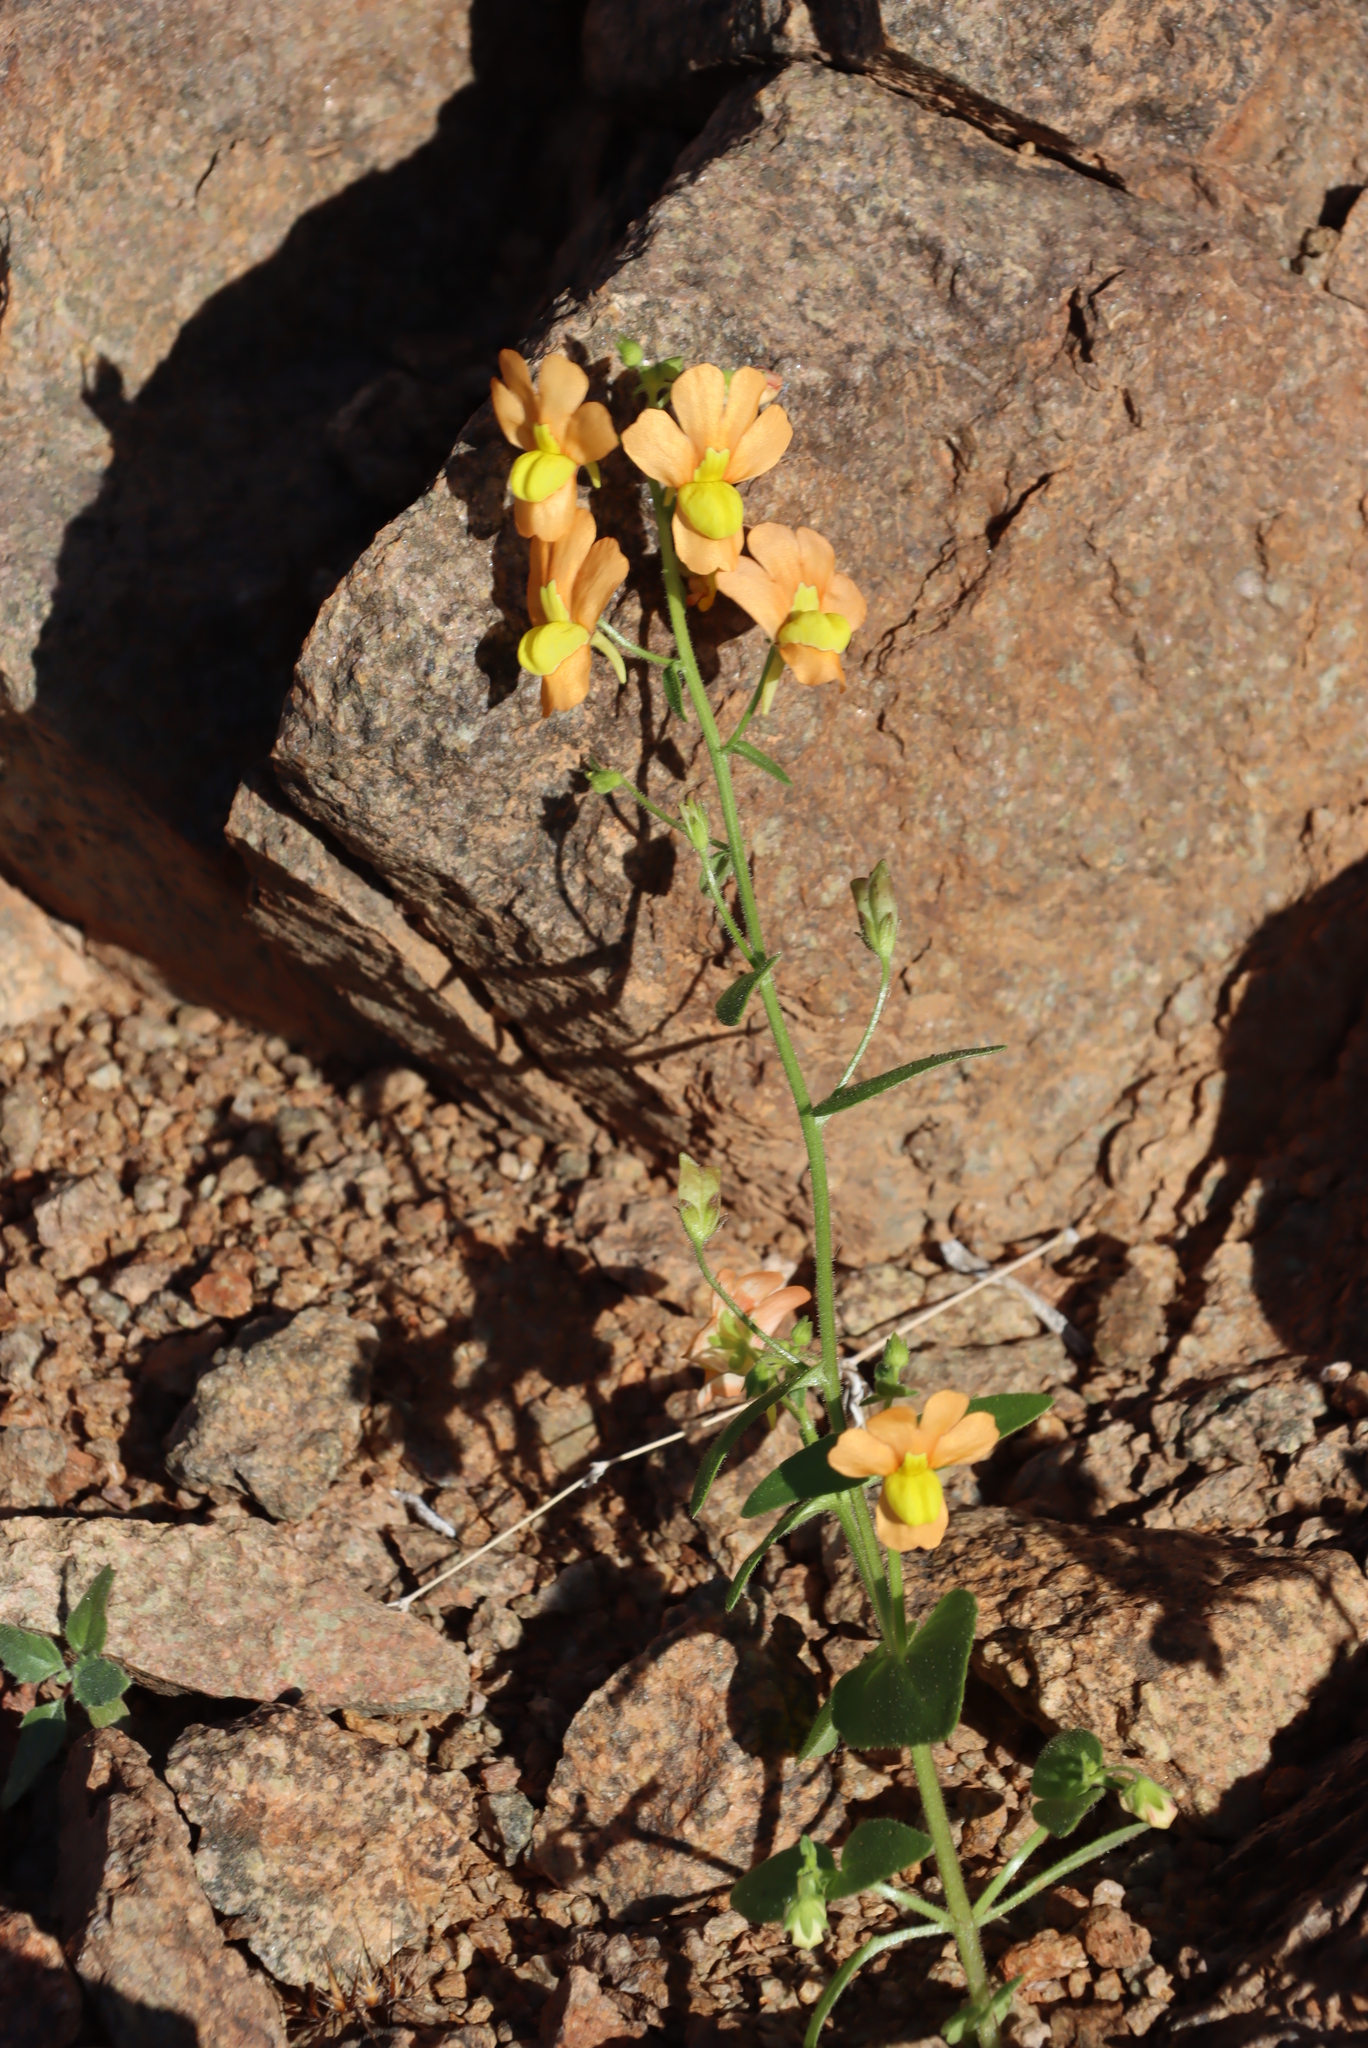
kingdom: Plantae
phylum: Tracheophyta
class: Magnoliopsida
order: Lamiales
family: Scrophulariaceae
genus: Nemesia
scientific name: Nemesia williamsonii
